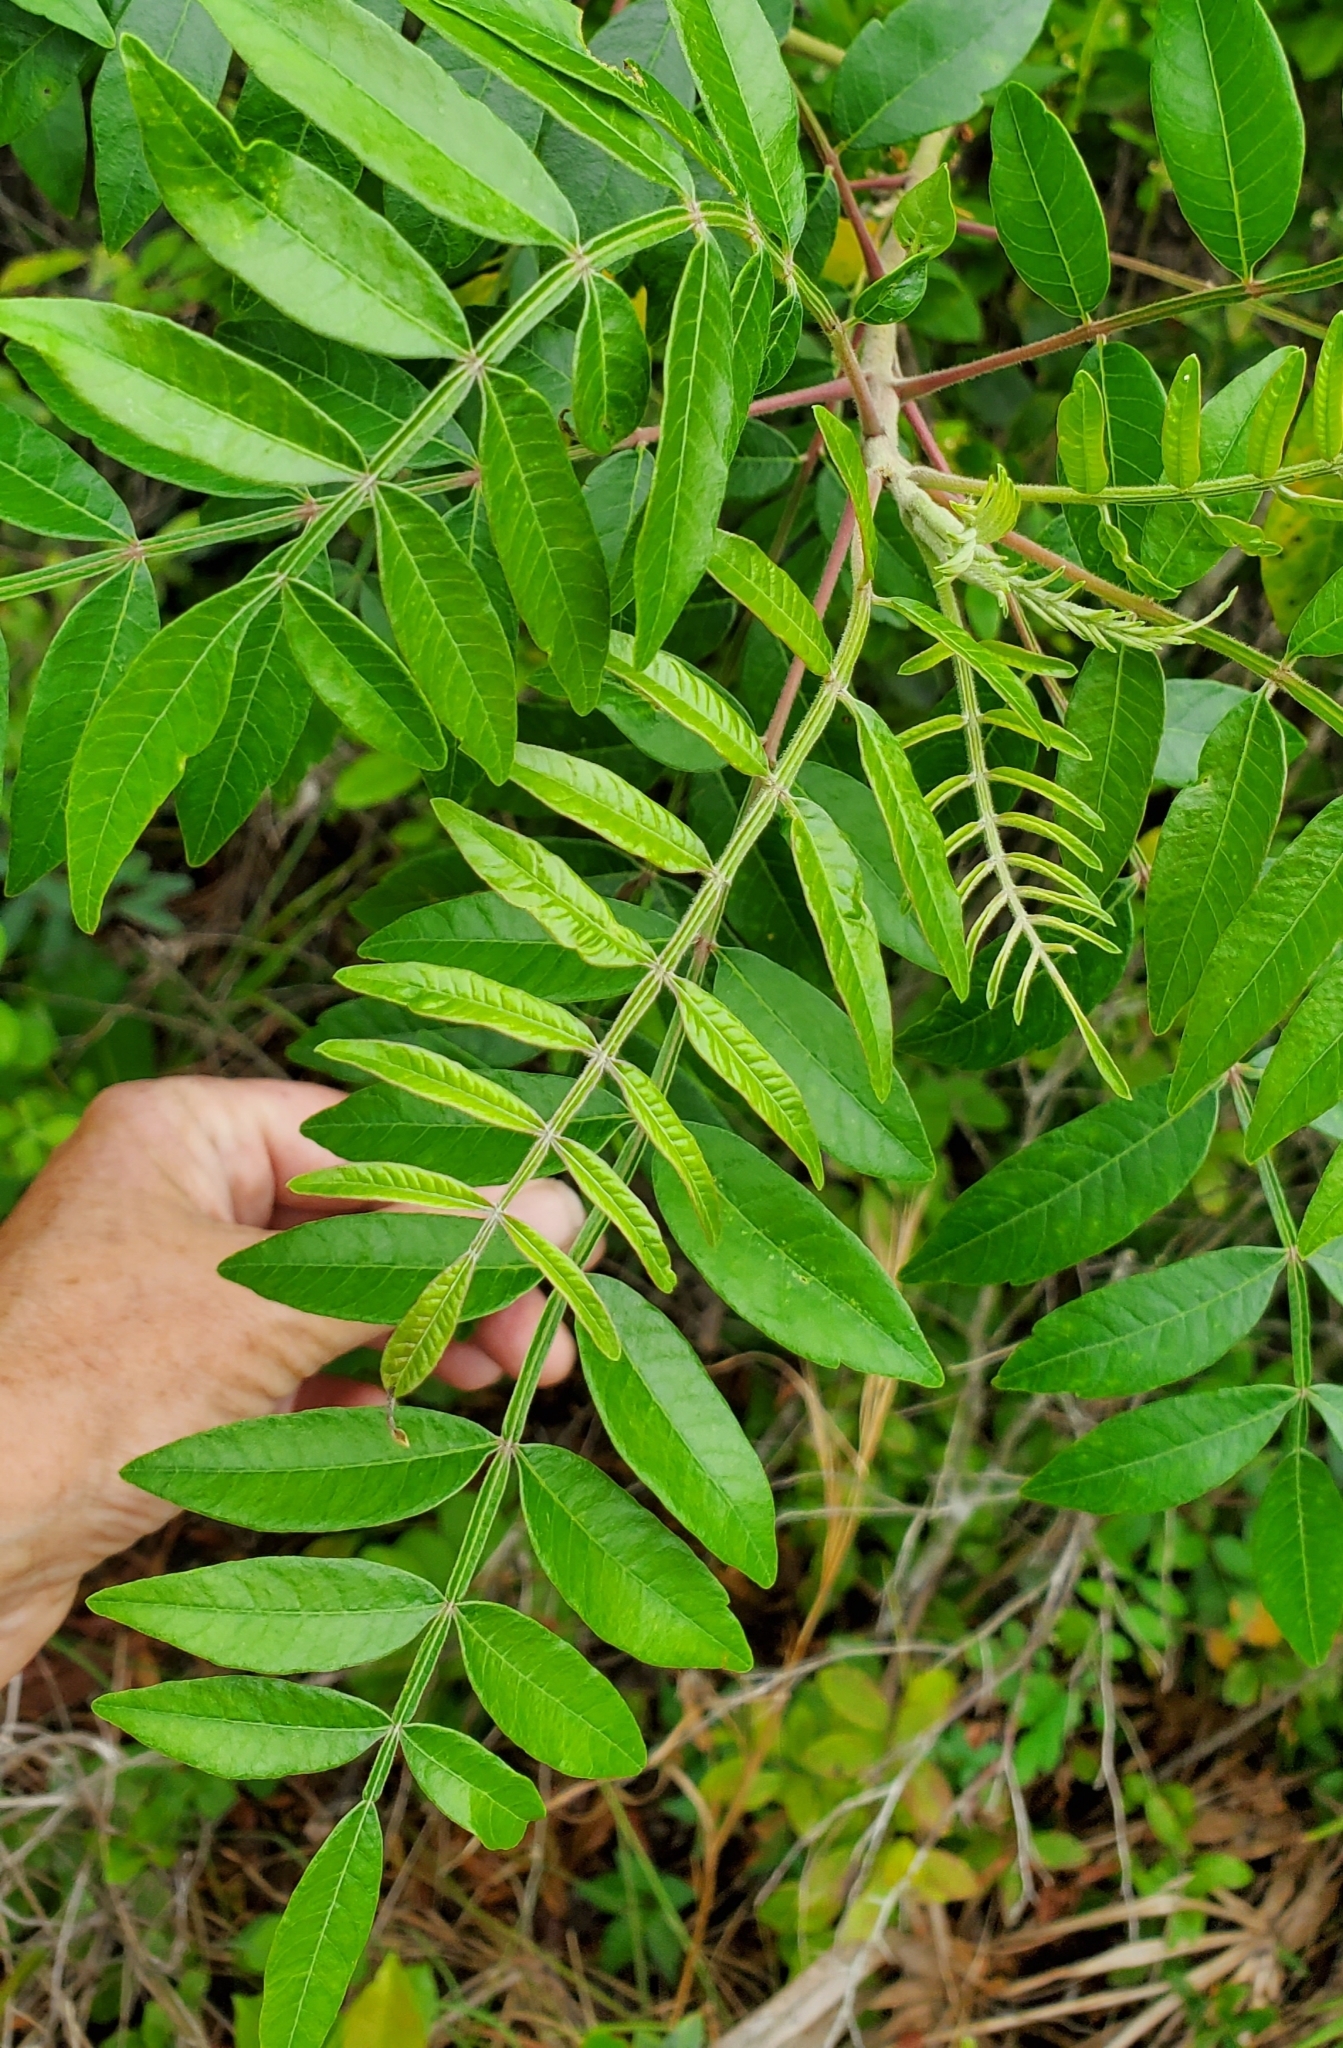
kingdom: Plantae
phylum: Tracheophyta
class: Magnoliopsida
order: Sapindales
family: Anacardiaceae
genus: Rhus
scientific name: Rhus copallina
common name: Shining sumac
